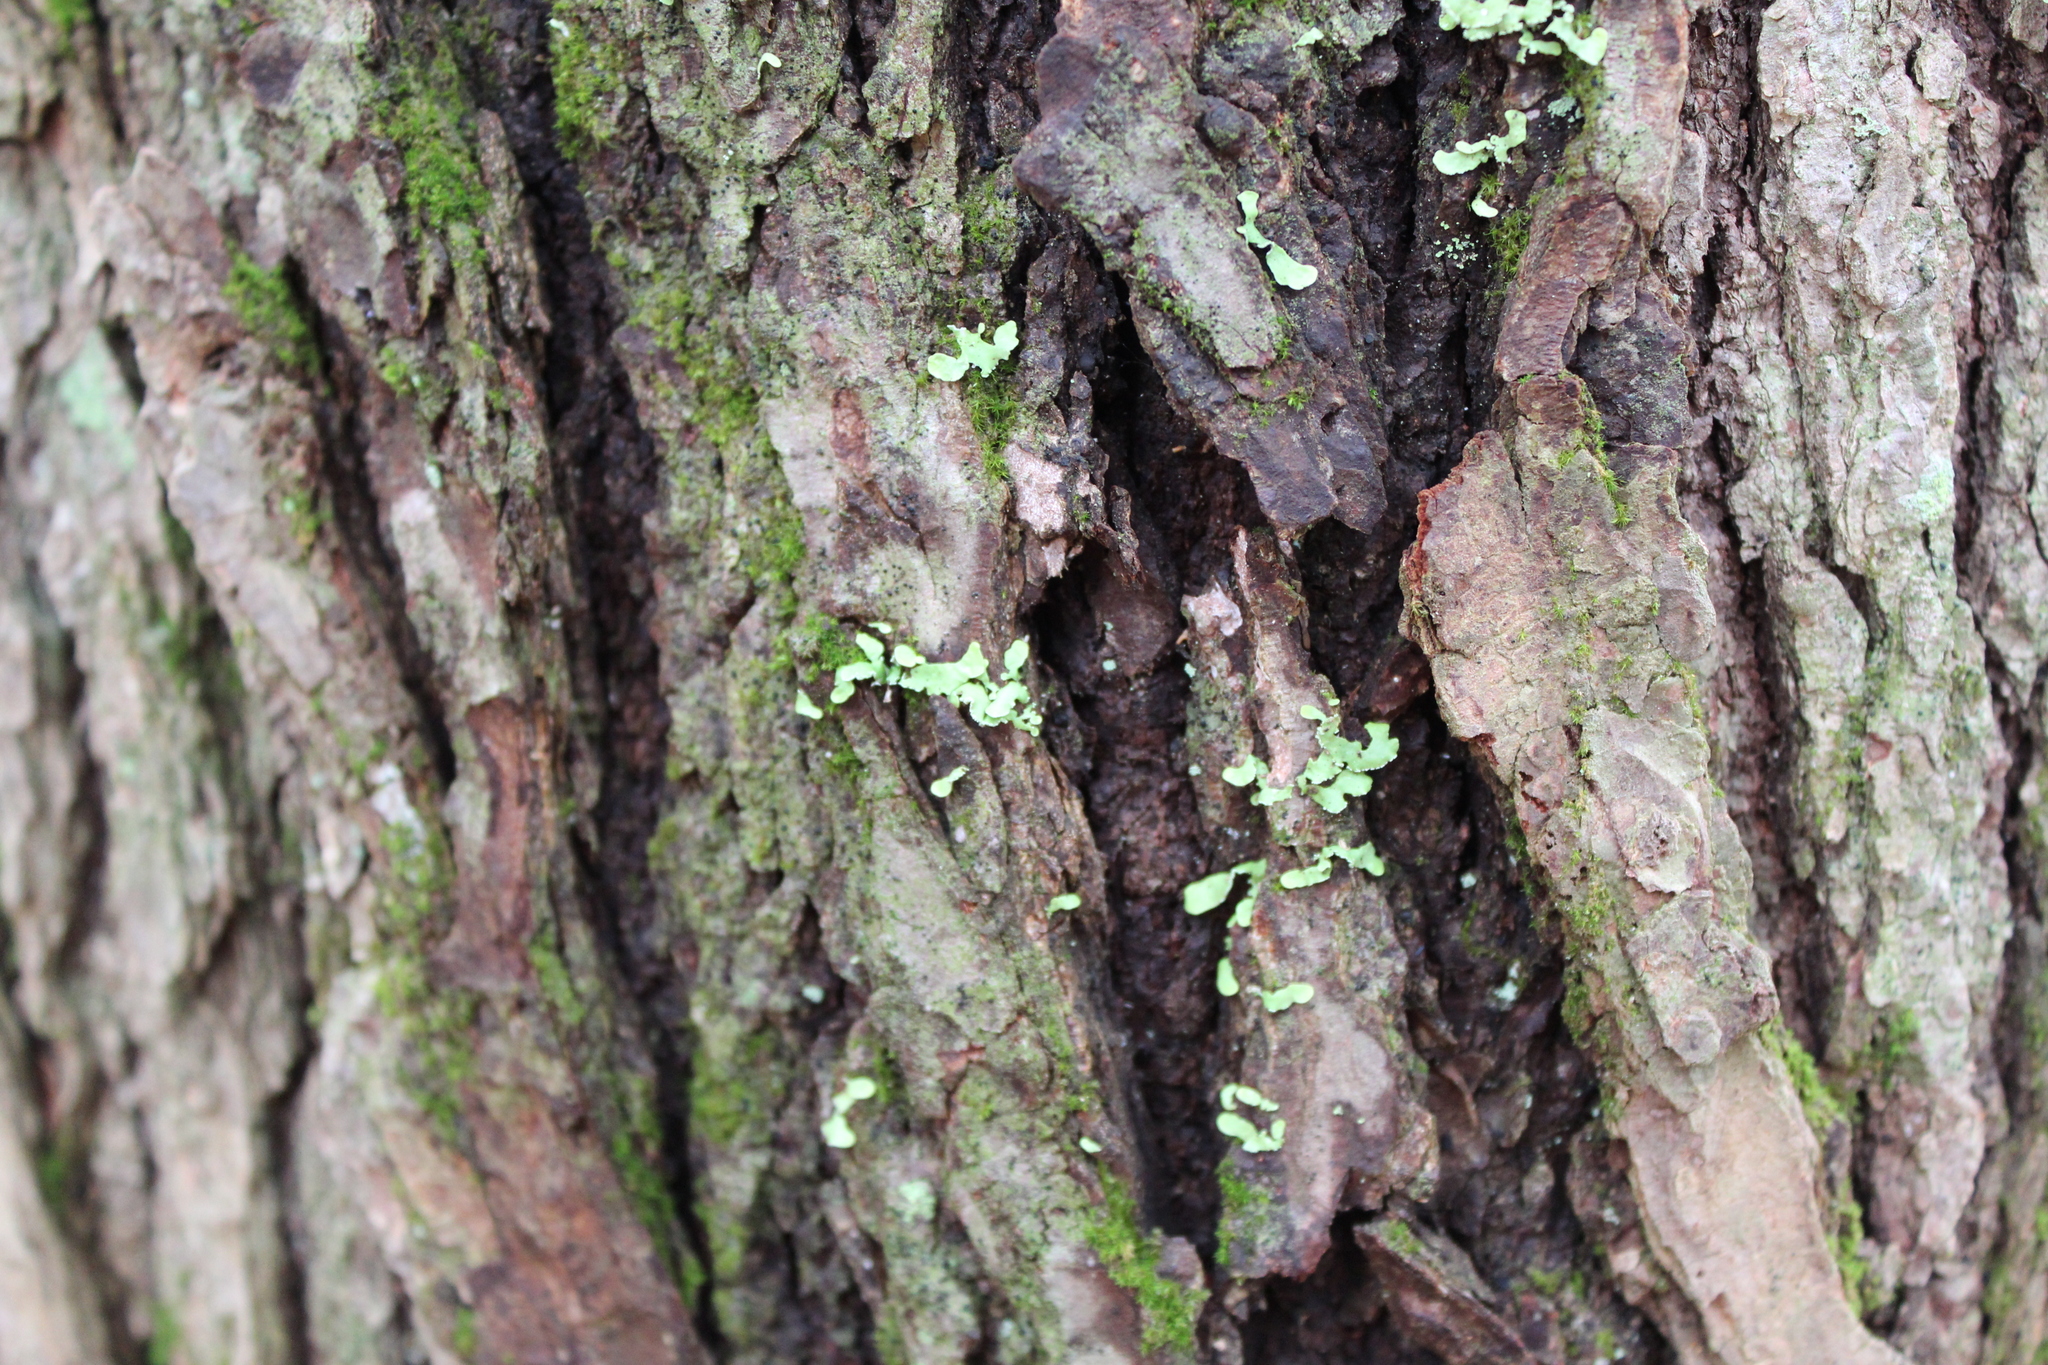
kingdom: Fungi
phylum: Ascomycota
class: Lecanoromycetes
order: Lecanorales
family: Parmeliaceae
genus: Usnocetraria
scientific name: Usnocetraria oakesiana
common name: Yellow ribbon lichen
